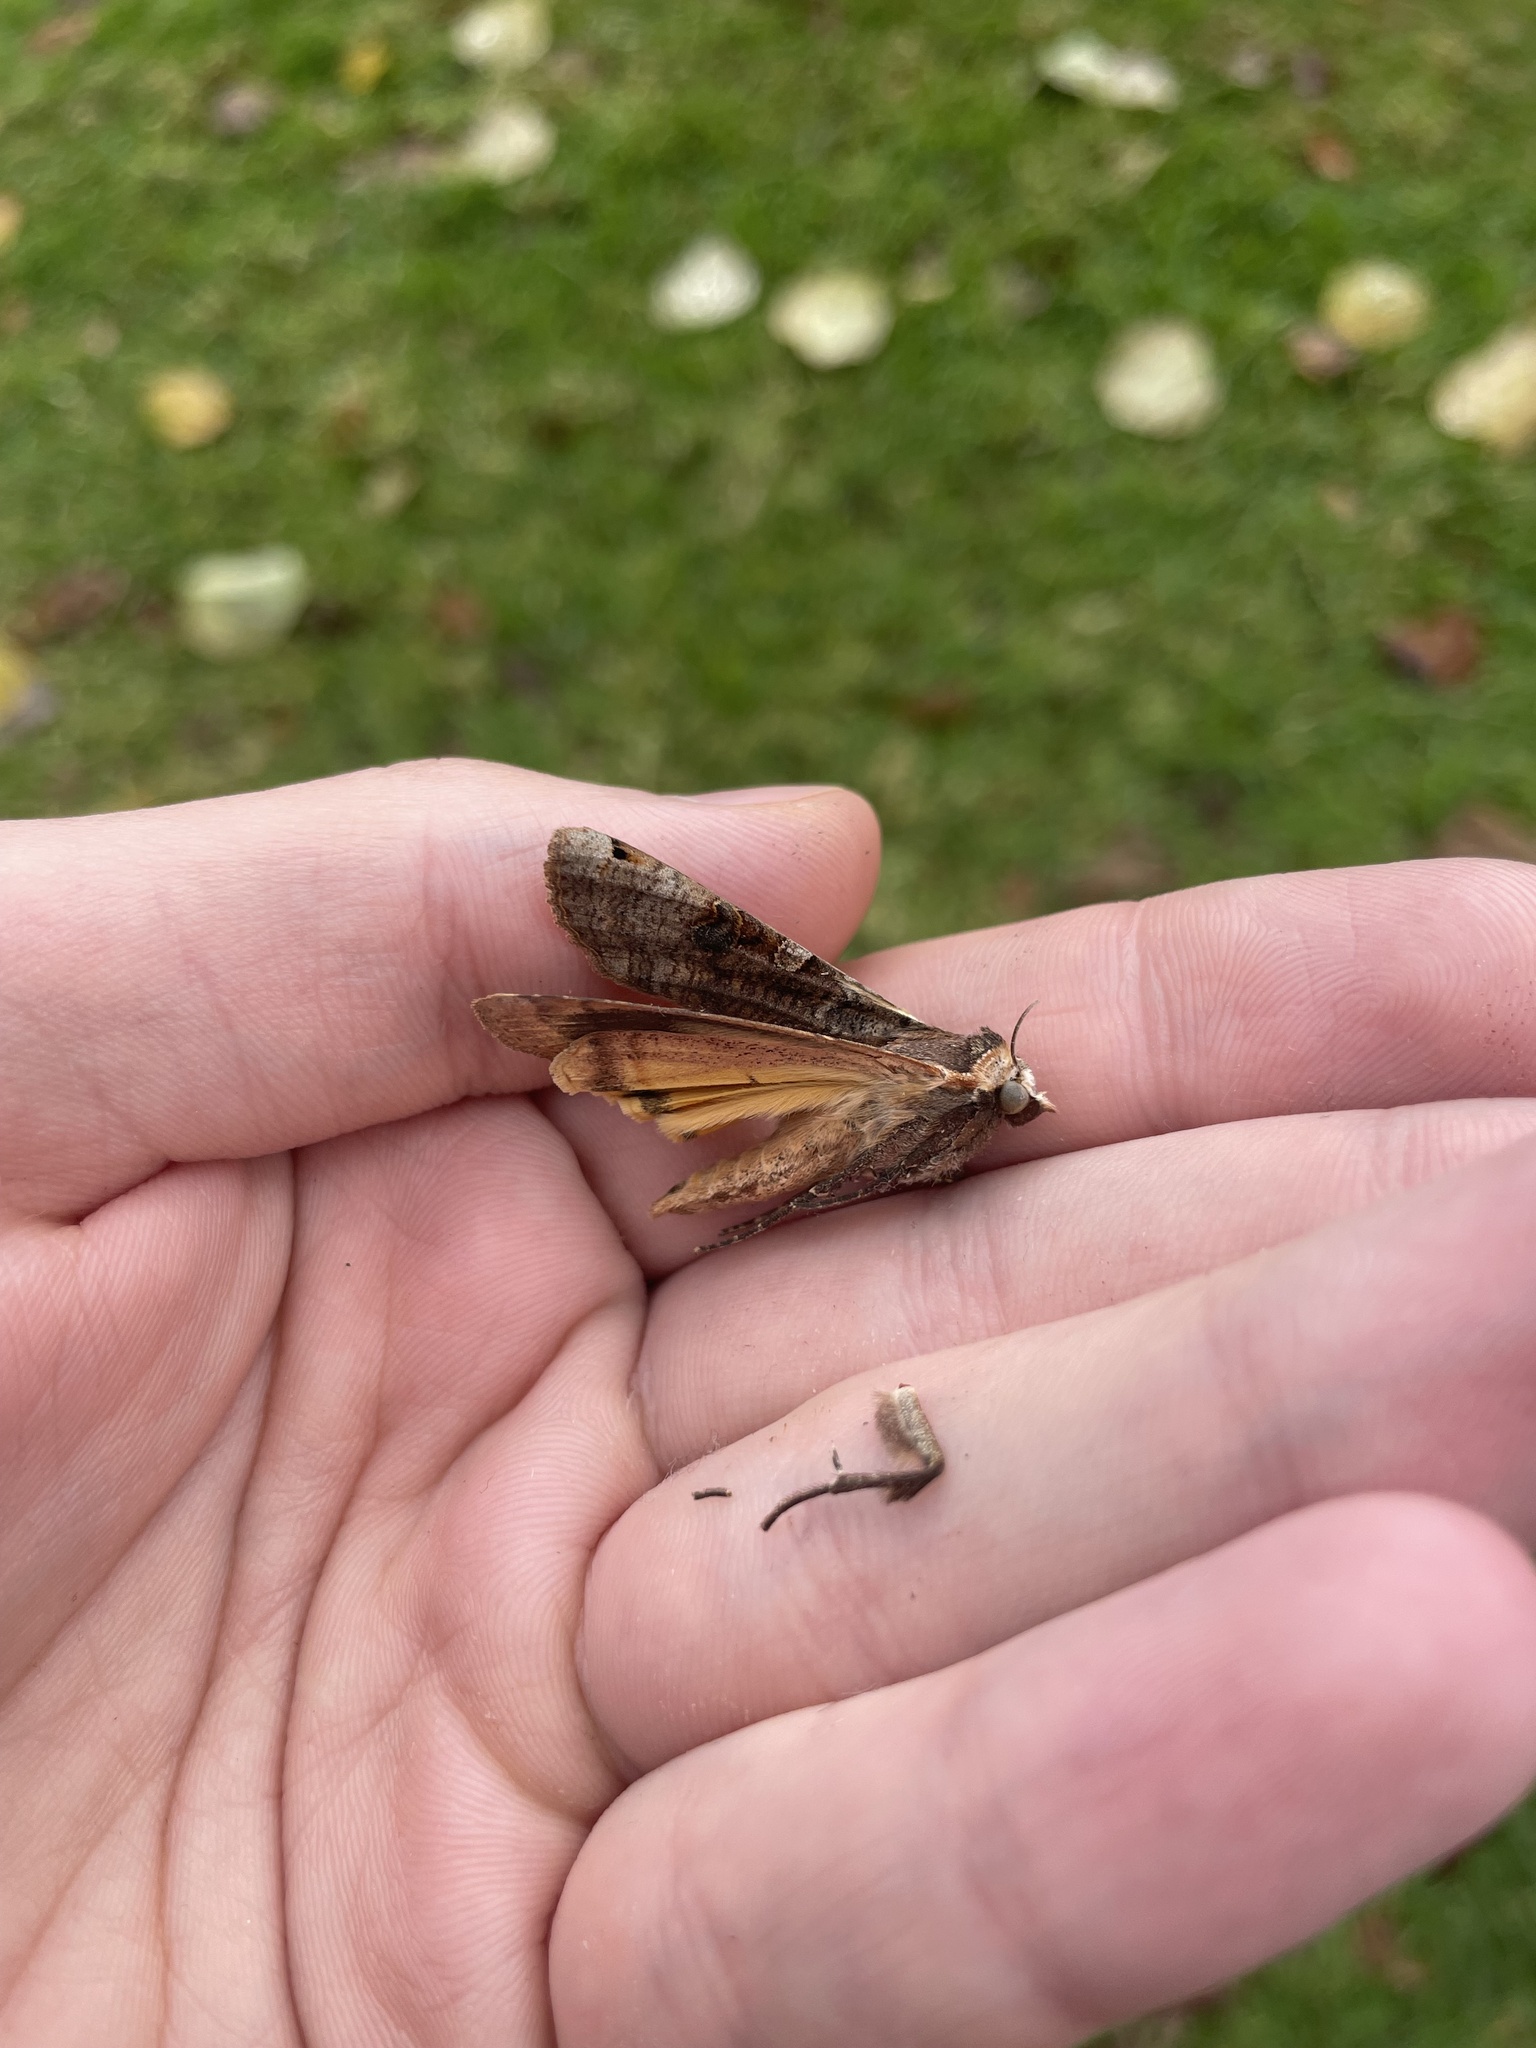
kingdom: Animalia
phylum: Arthropoda
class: Insecta
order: Lepidoptera
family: Noctuidae
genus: Noctua
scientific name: Noctua pronuba
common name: Large yellow underwing
